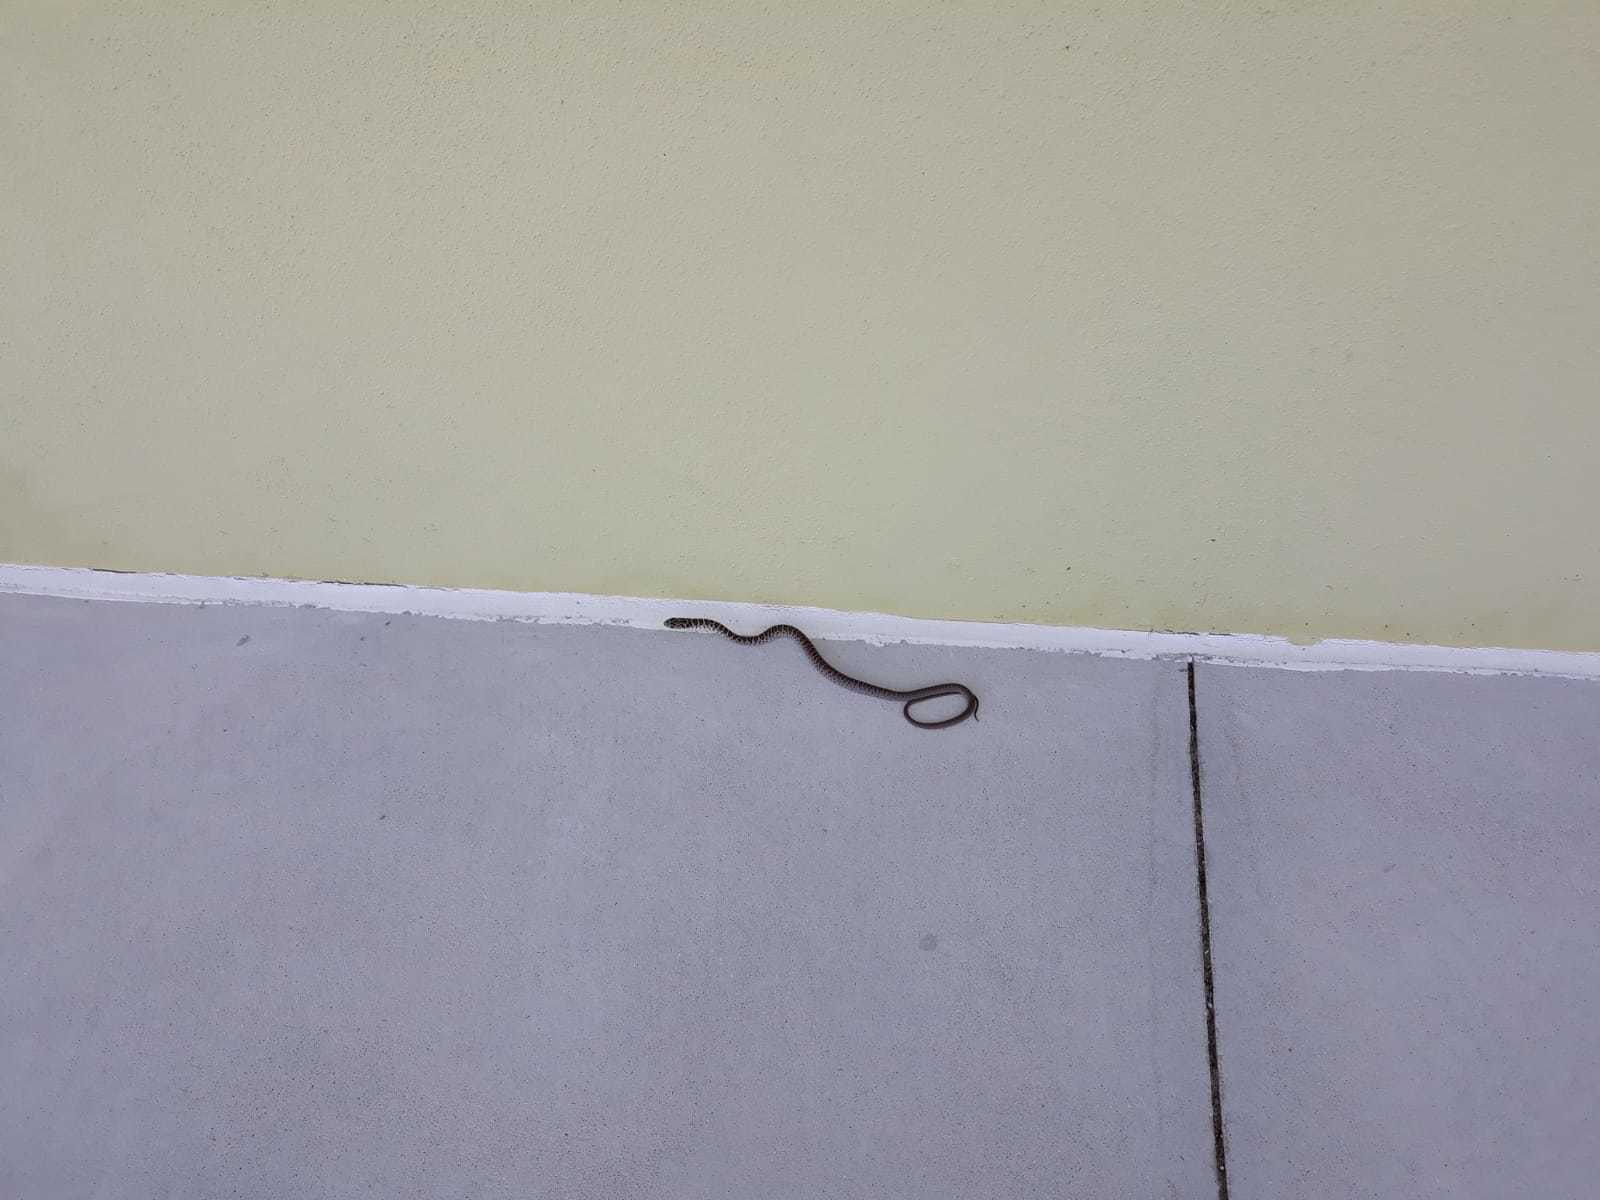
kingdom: Animalia
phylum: Chordata
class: Squamata
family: Colubridae
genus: Coluber
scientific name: Coluber constrictor
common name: Eastern racer
